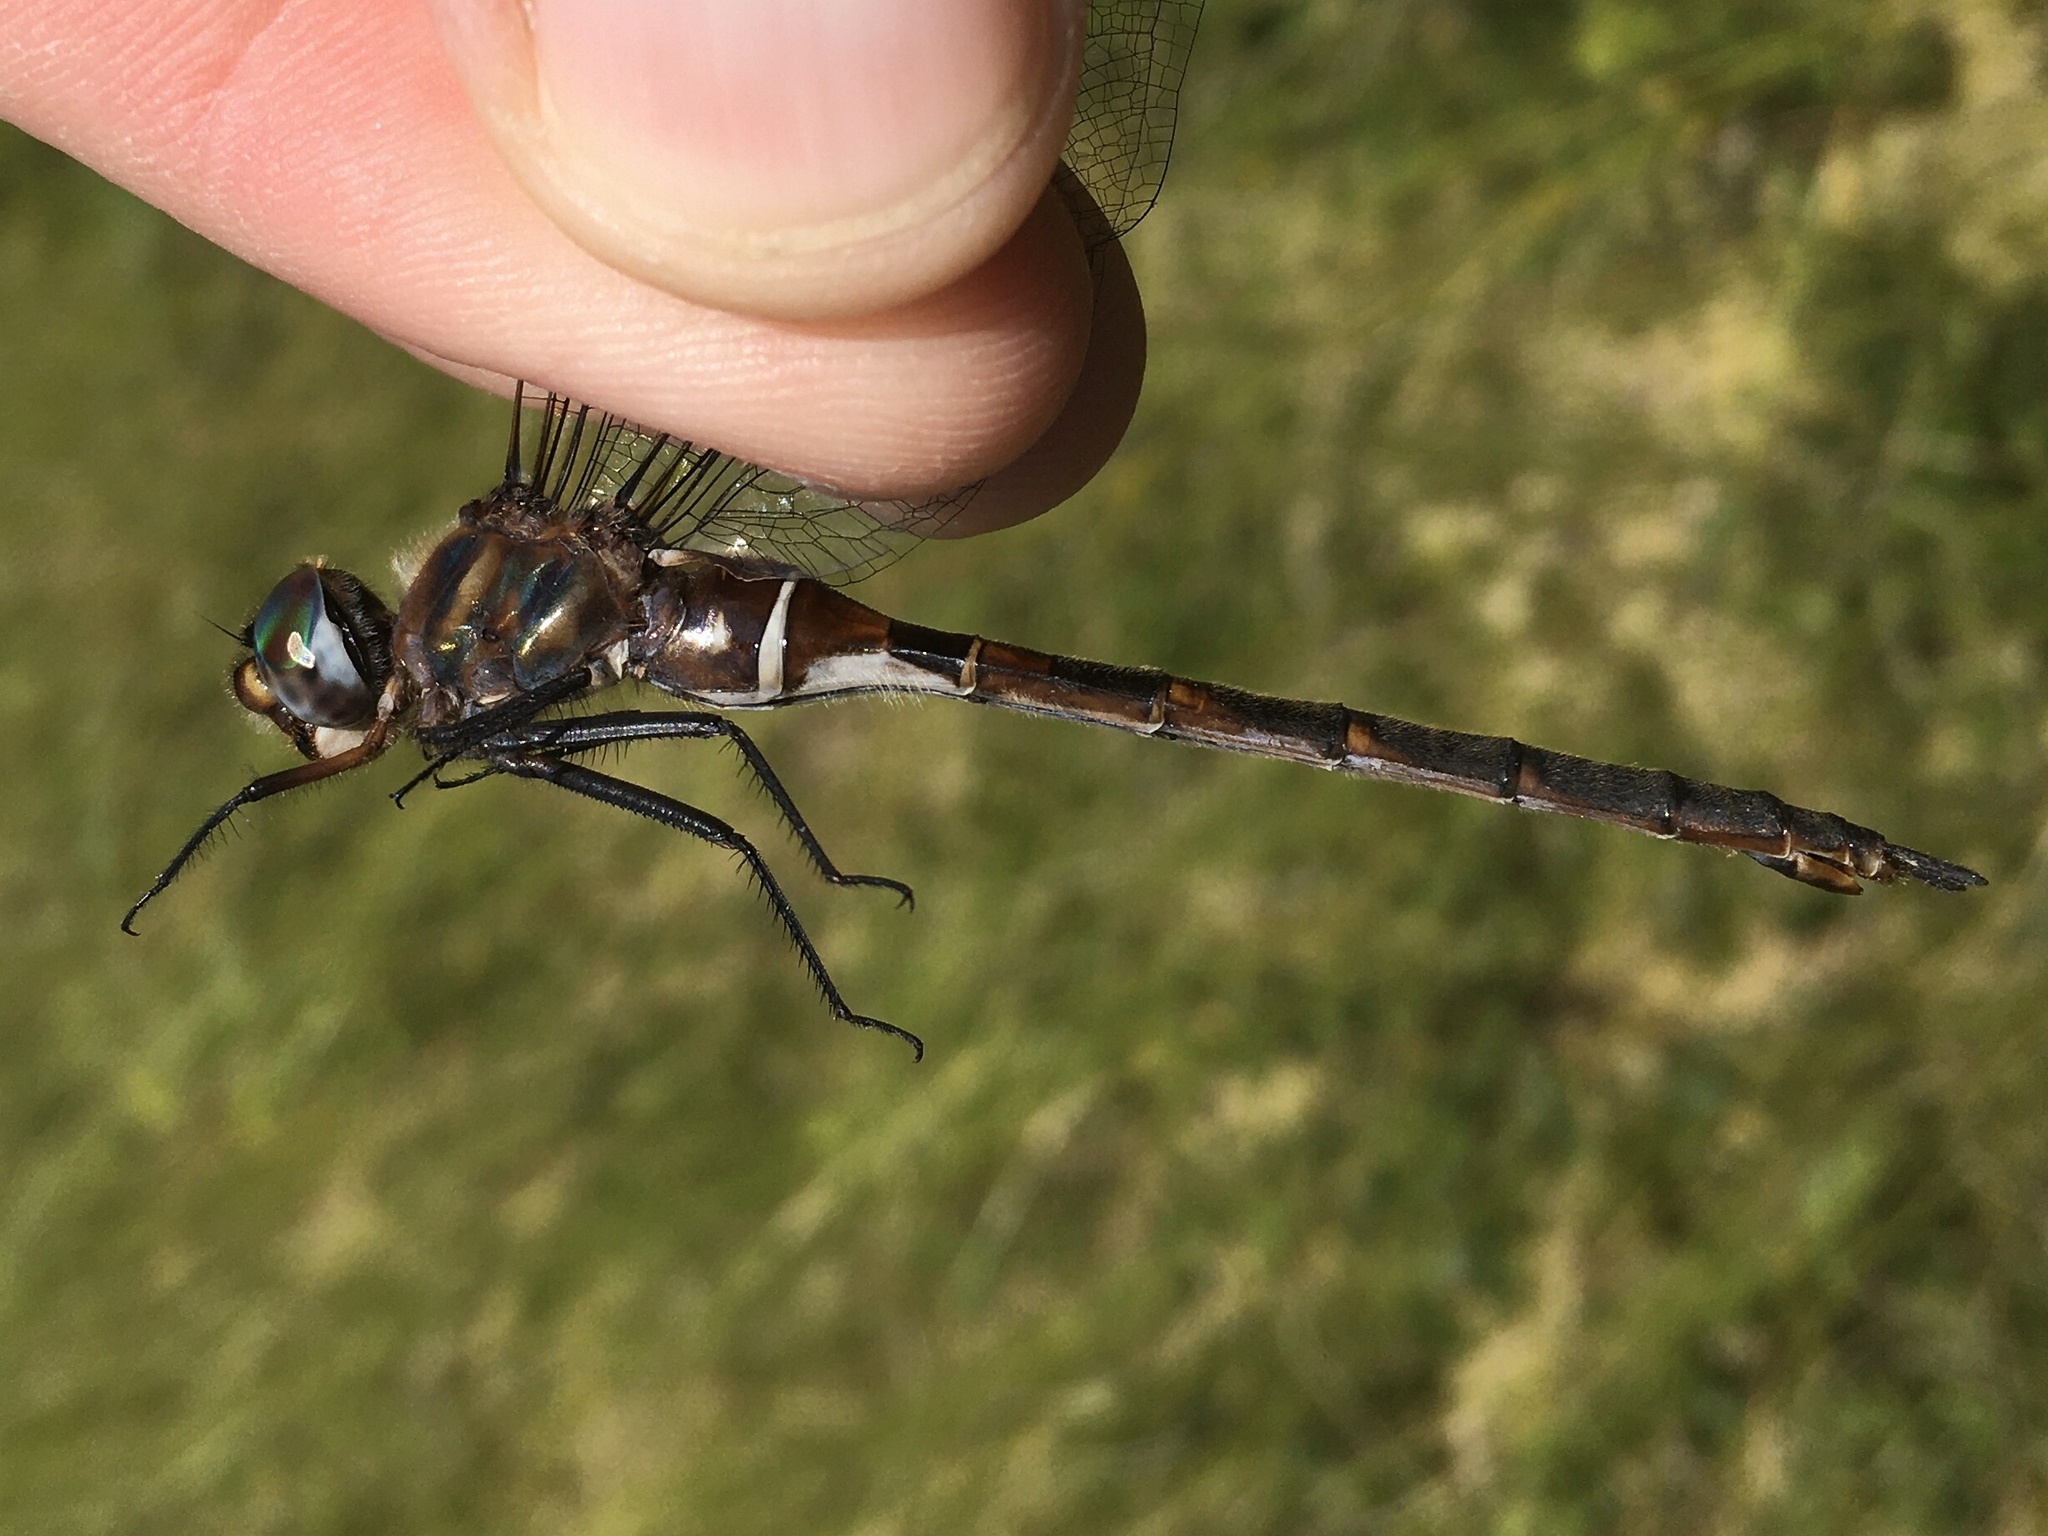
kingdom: Animalia
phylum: Arthropoda
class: Insecta
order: Odonata
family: Corduliidae
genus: Somatochlora
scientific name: Somatochlora incurvata
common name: Incurvate emerald
